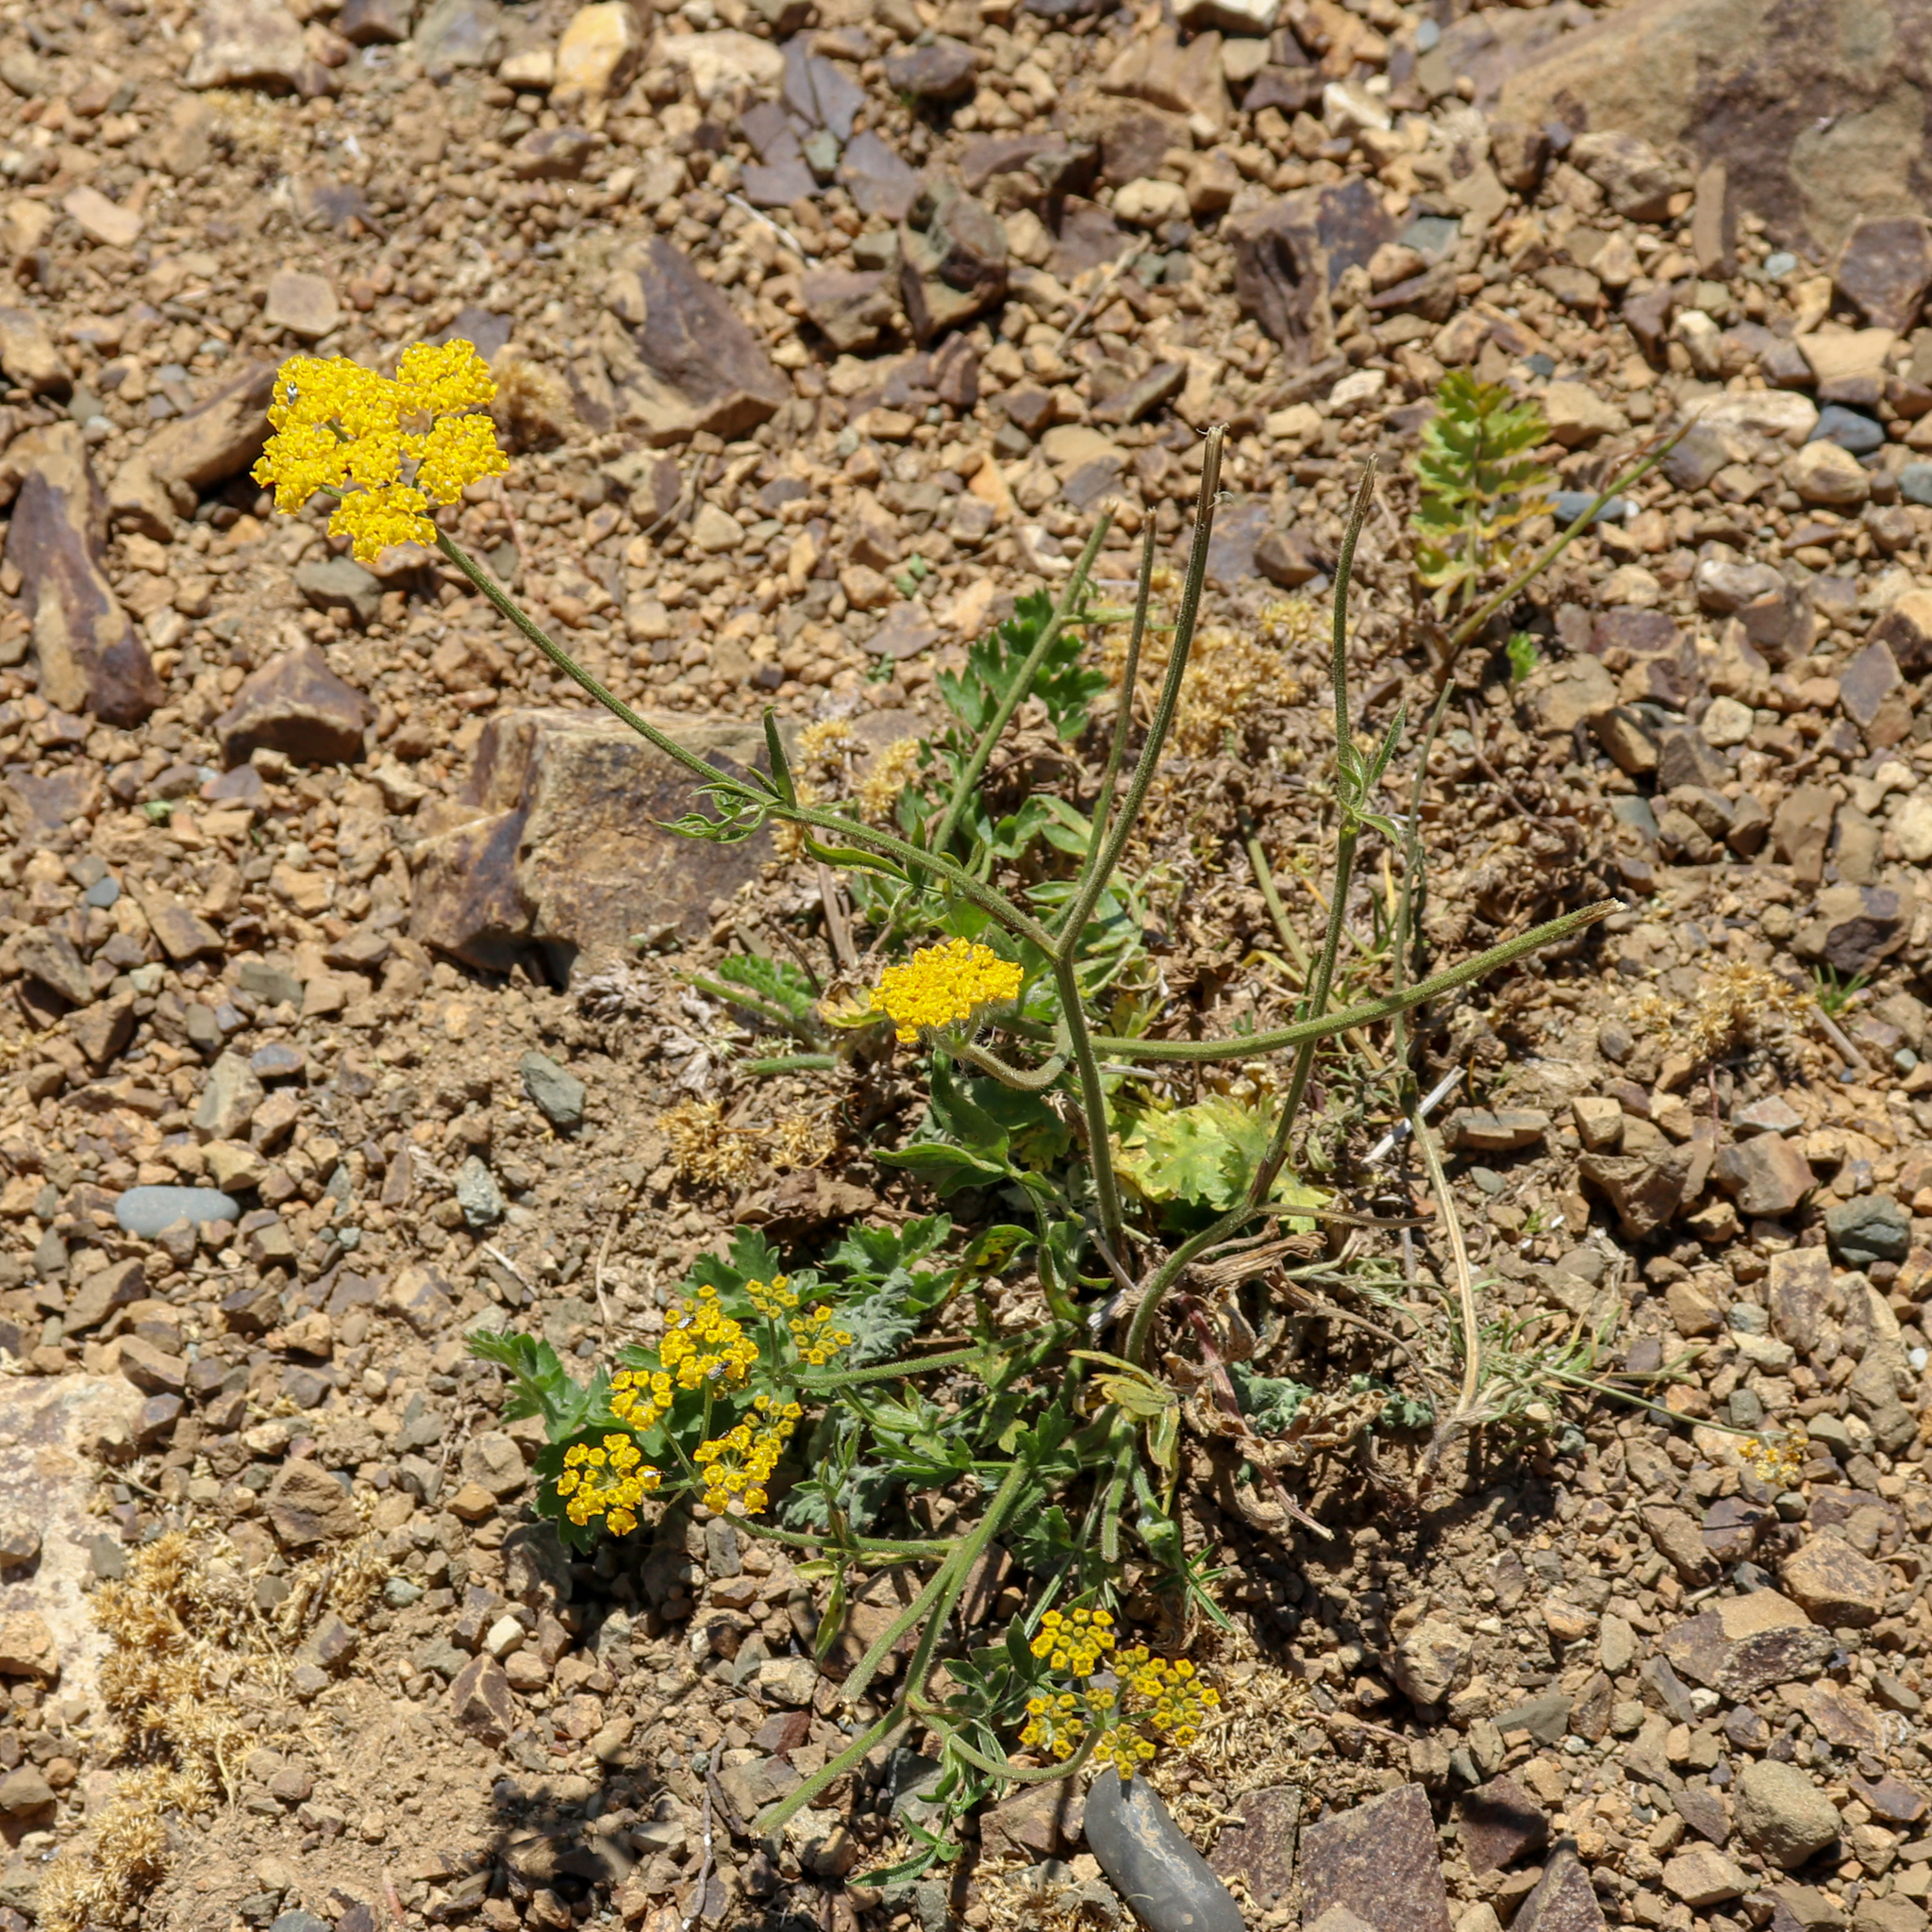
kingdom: Plantae
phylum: Tracheophyta
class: Magnoliopsida
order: Apiales
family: Apiaceae
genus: Pastinaca
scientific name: Pastinaca armena
